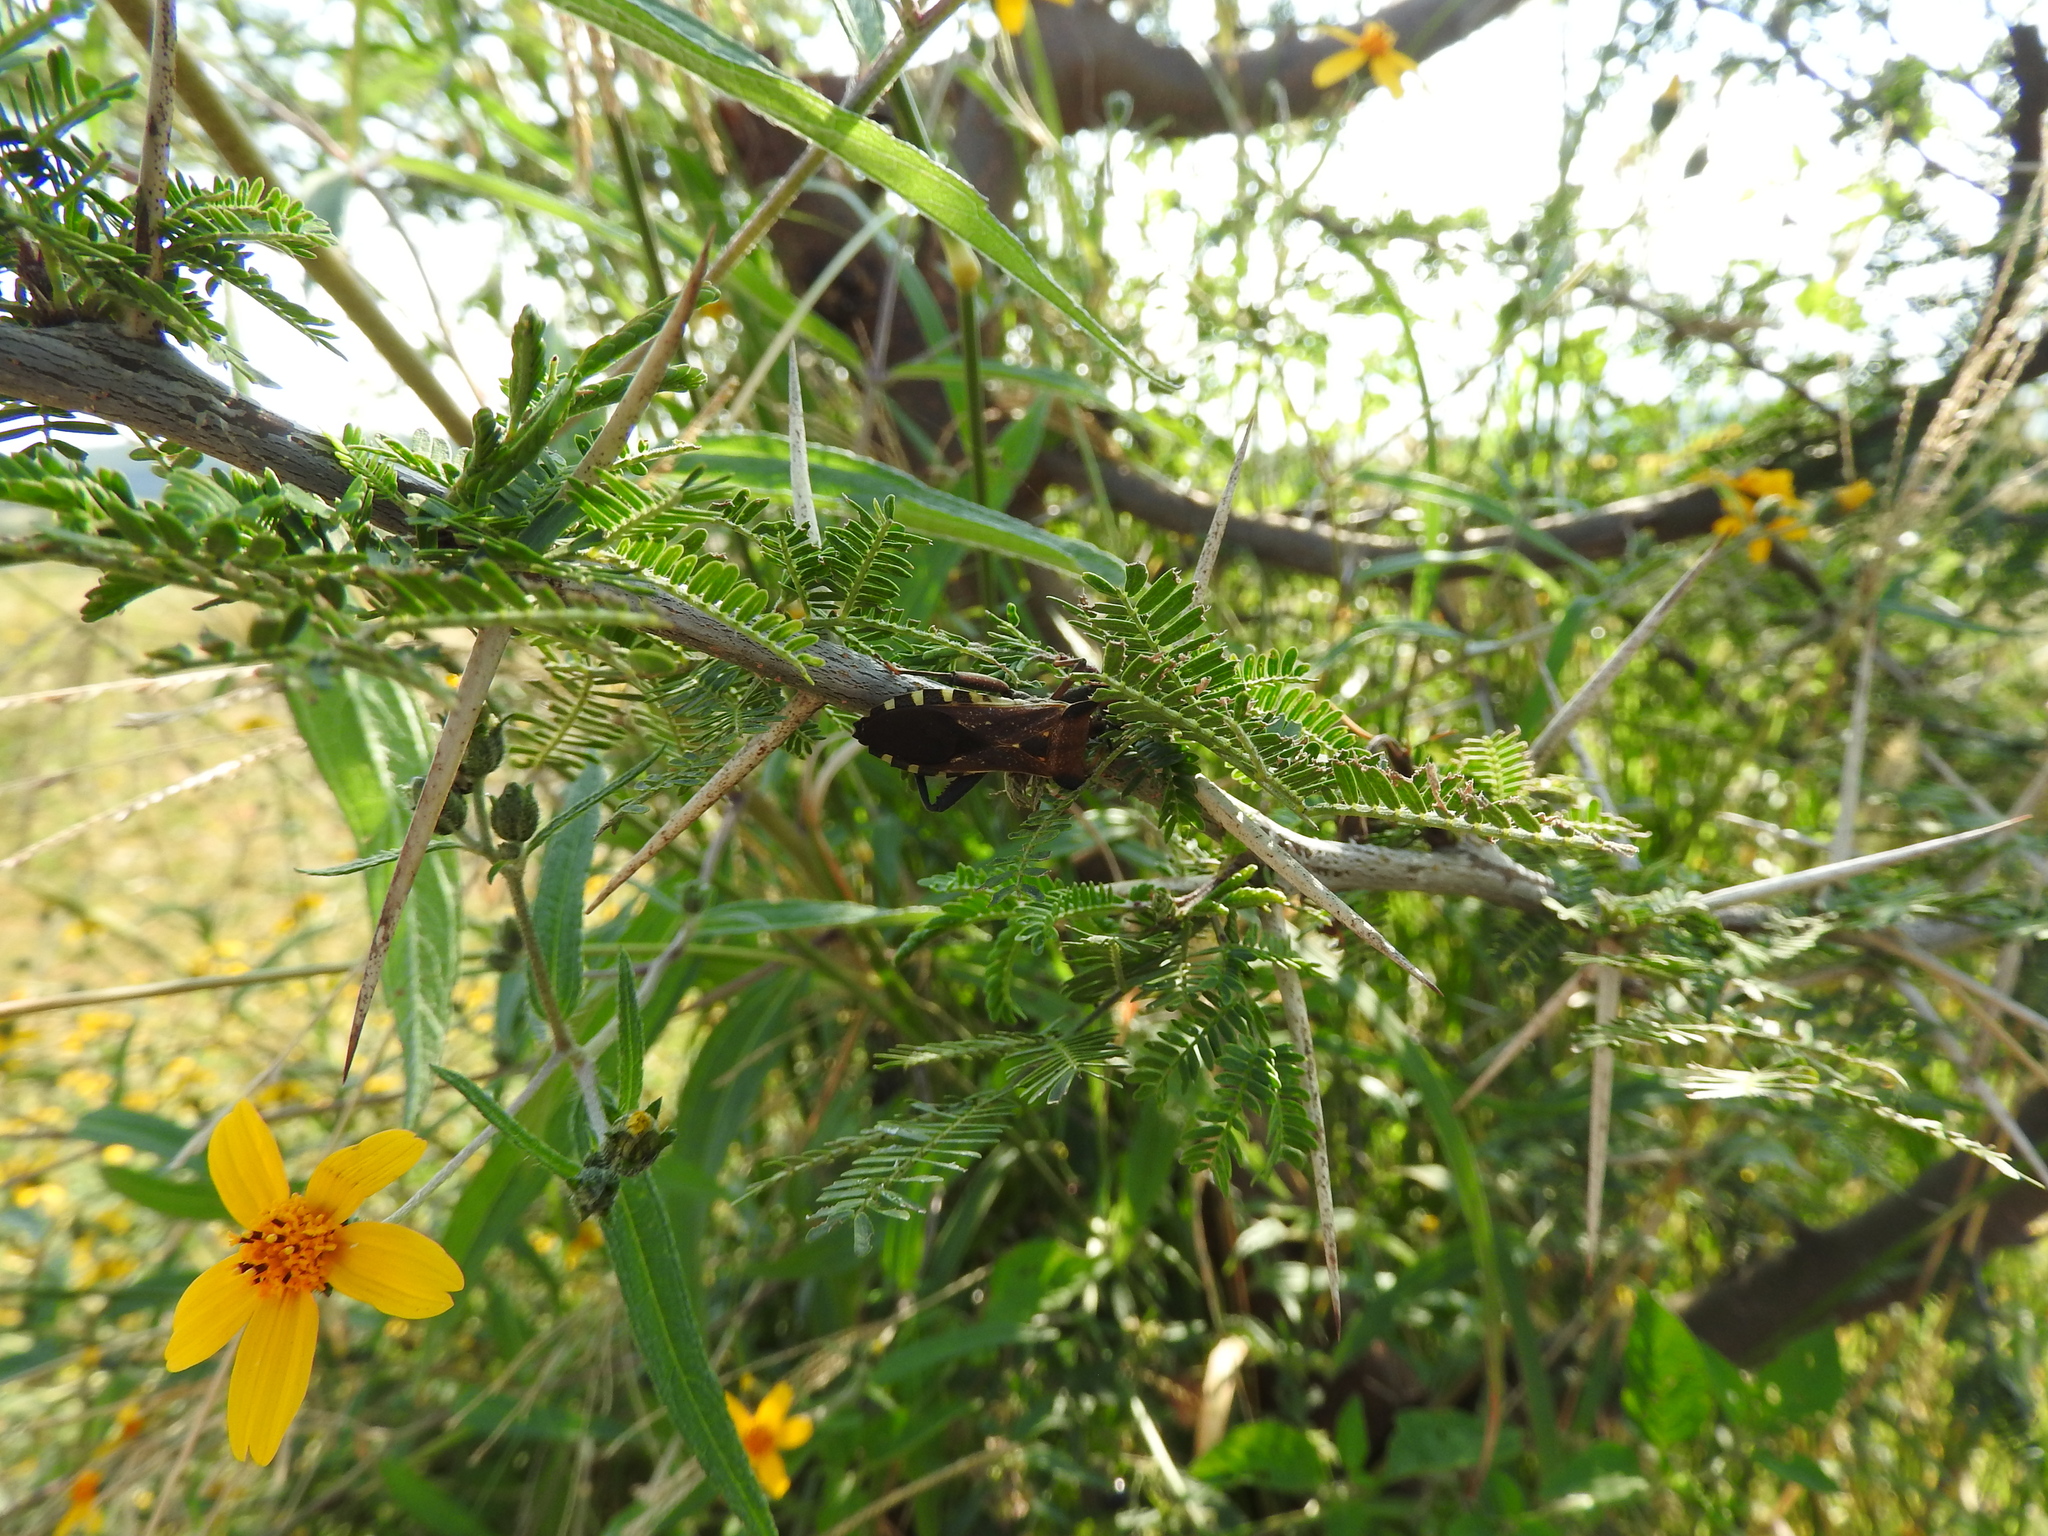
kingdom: Animalia
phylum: Arthropoda
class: Insecta
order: Hemiptera
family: Coreidae
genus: Mozena
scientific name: Mozena lunata
